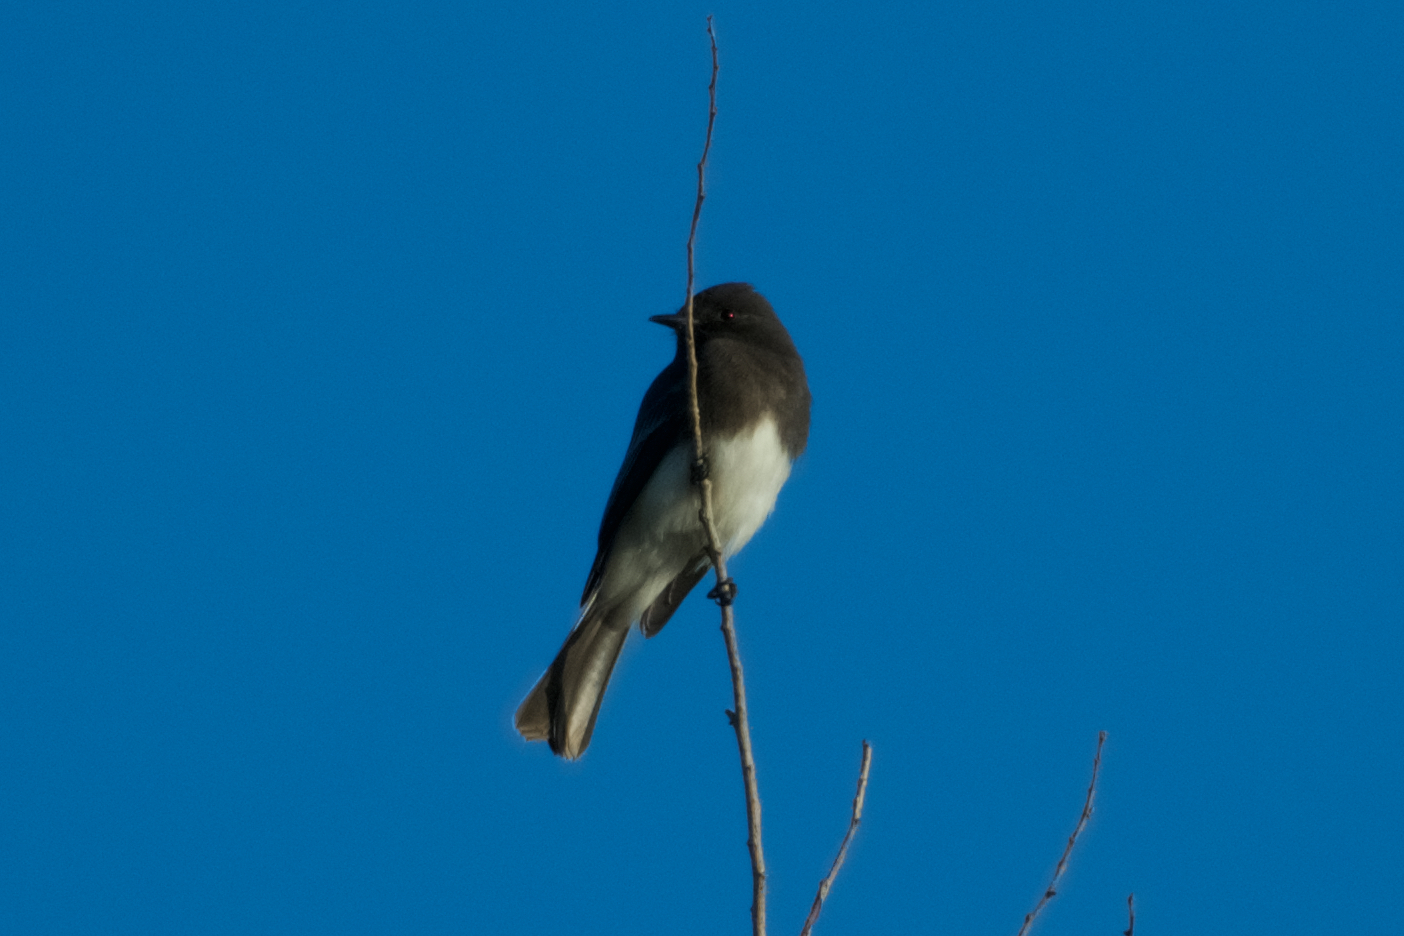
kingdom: Animalia
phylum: Chordata
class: Aves
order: Passeriformes
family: Tyrannidae
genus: Sayornis
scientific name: Sayornis nigricans
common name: Black phoebe
